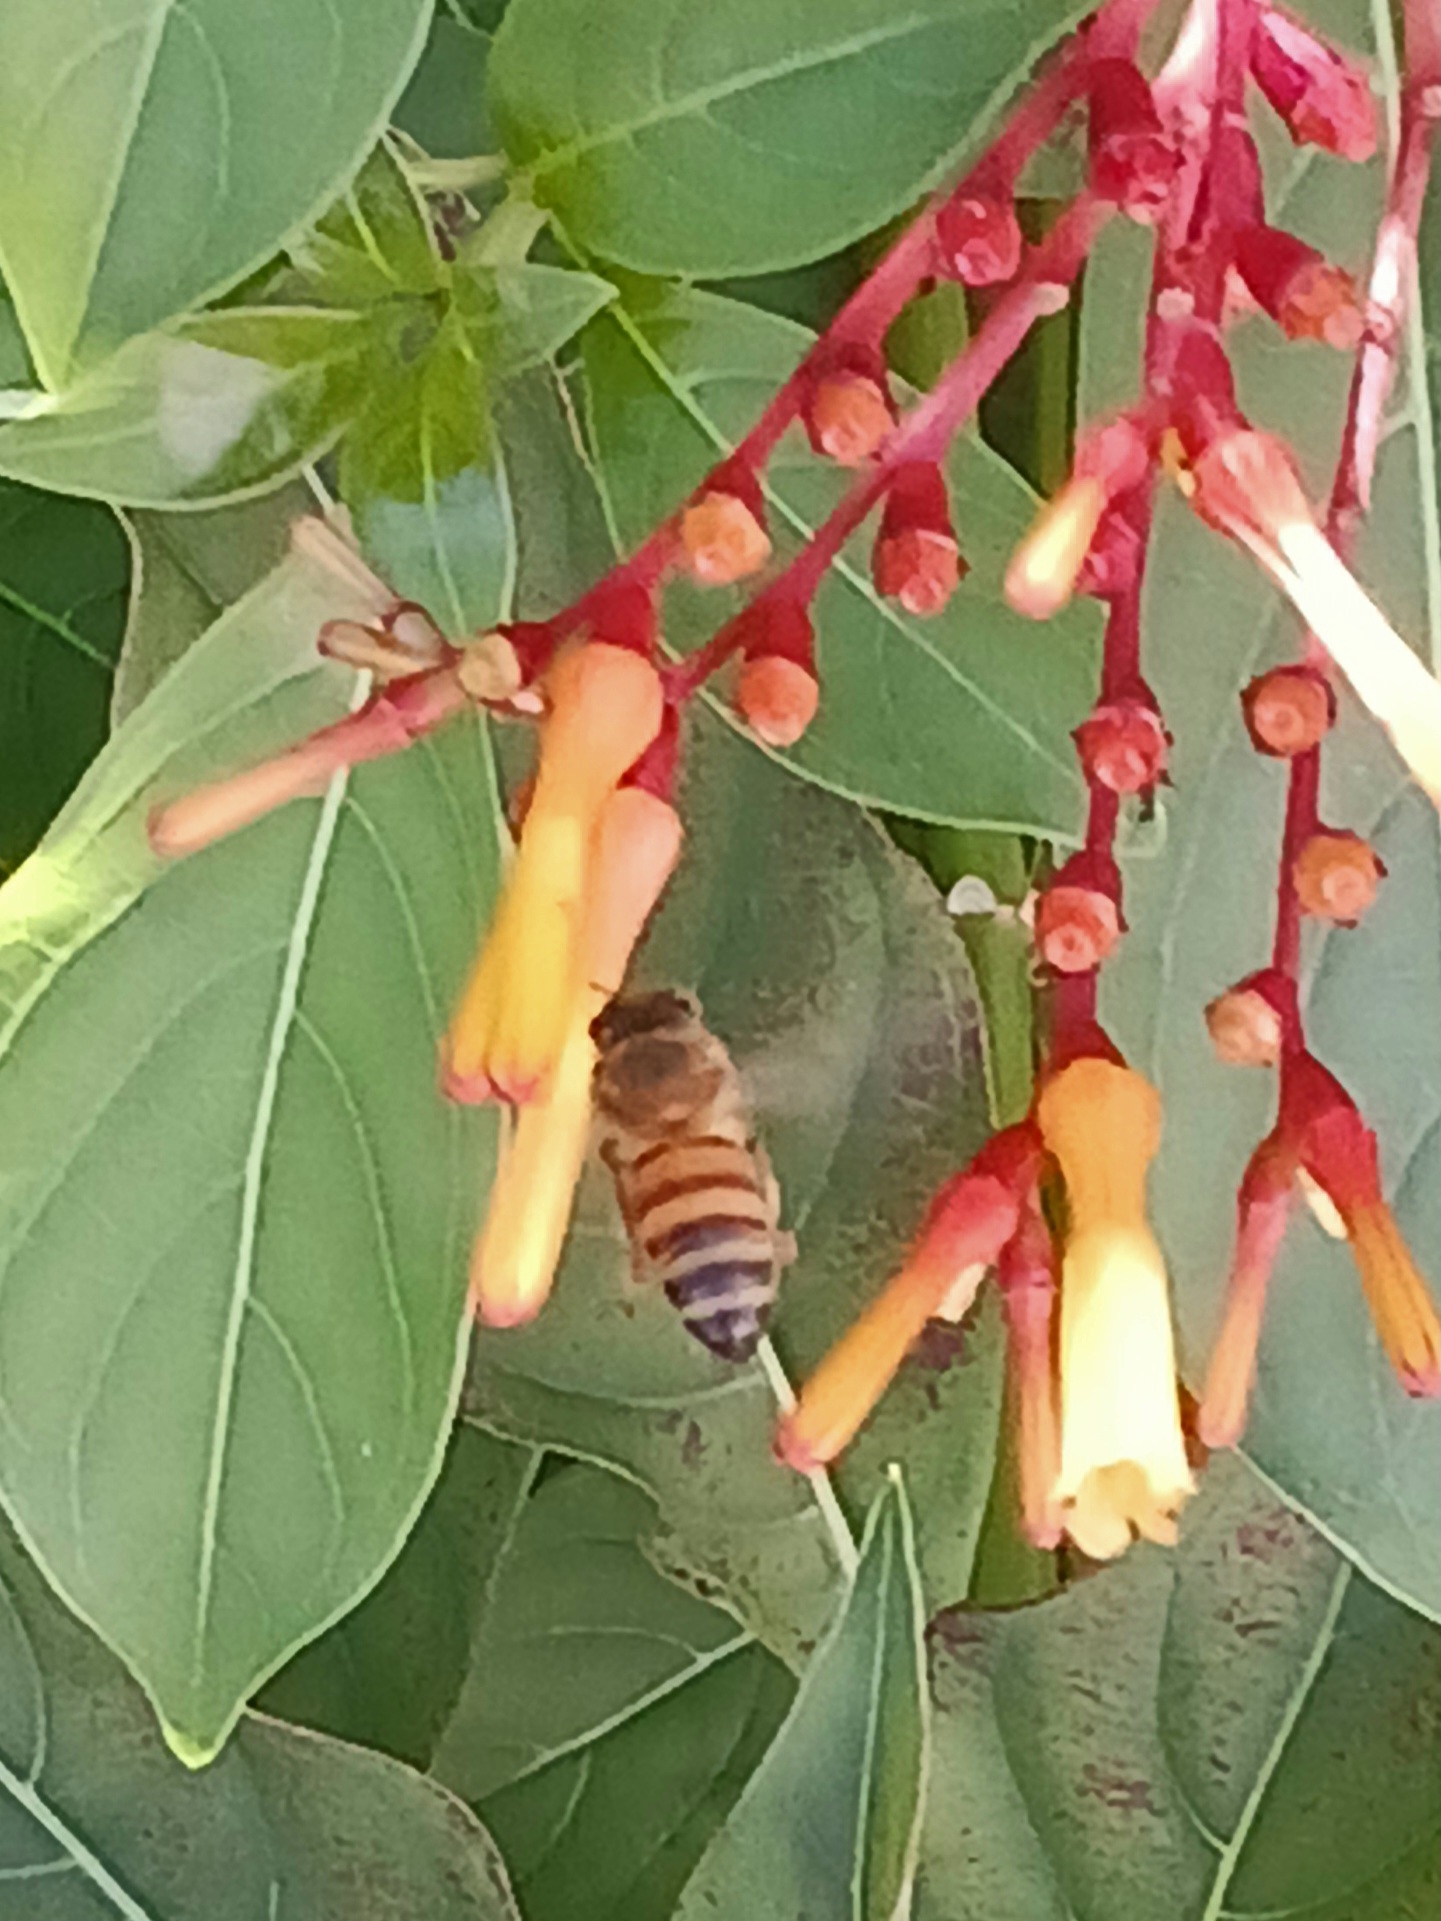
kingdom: Animalia
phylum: Arthropoda
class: Insecta
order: Hymenoptera
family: Apidae
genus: Apis
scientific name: Apis mellifera
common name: Honey bee
